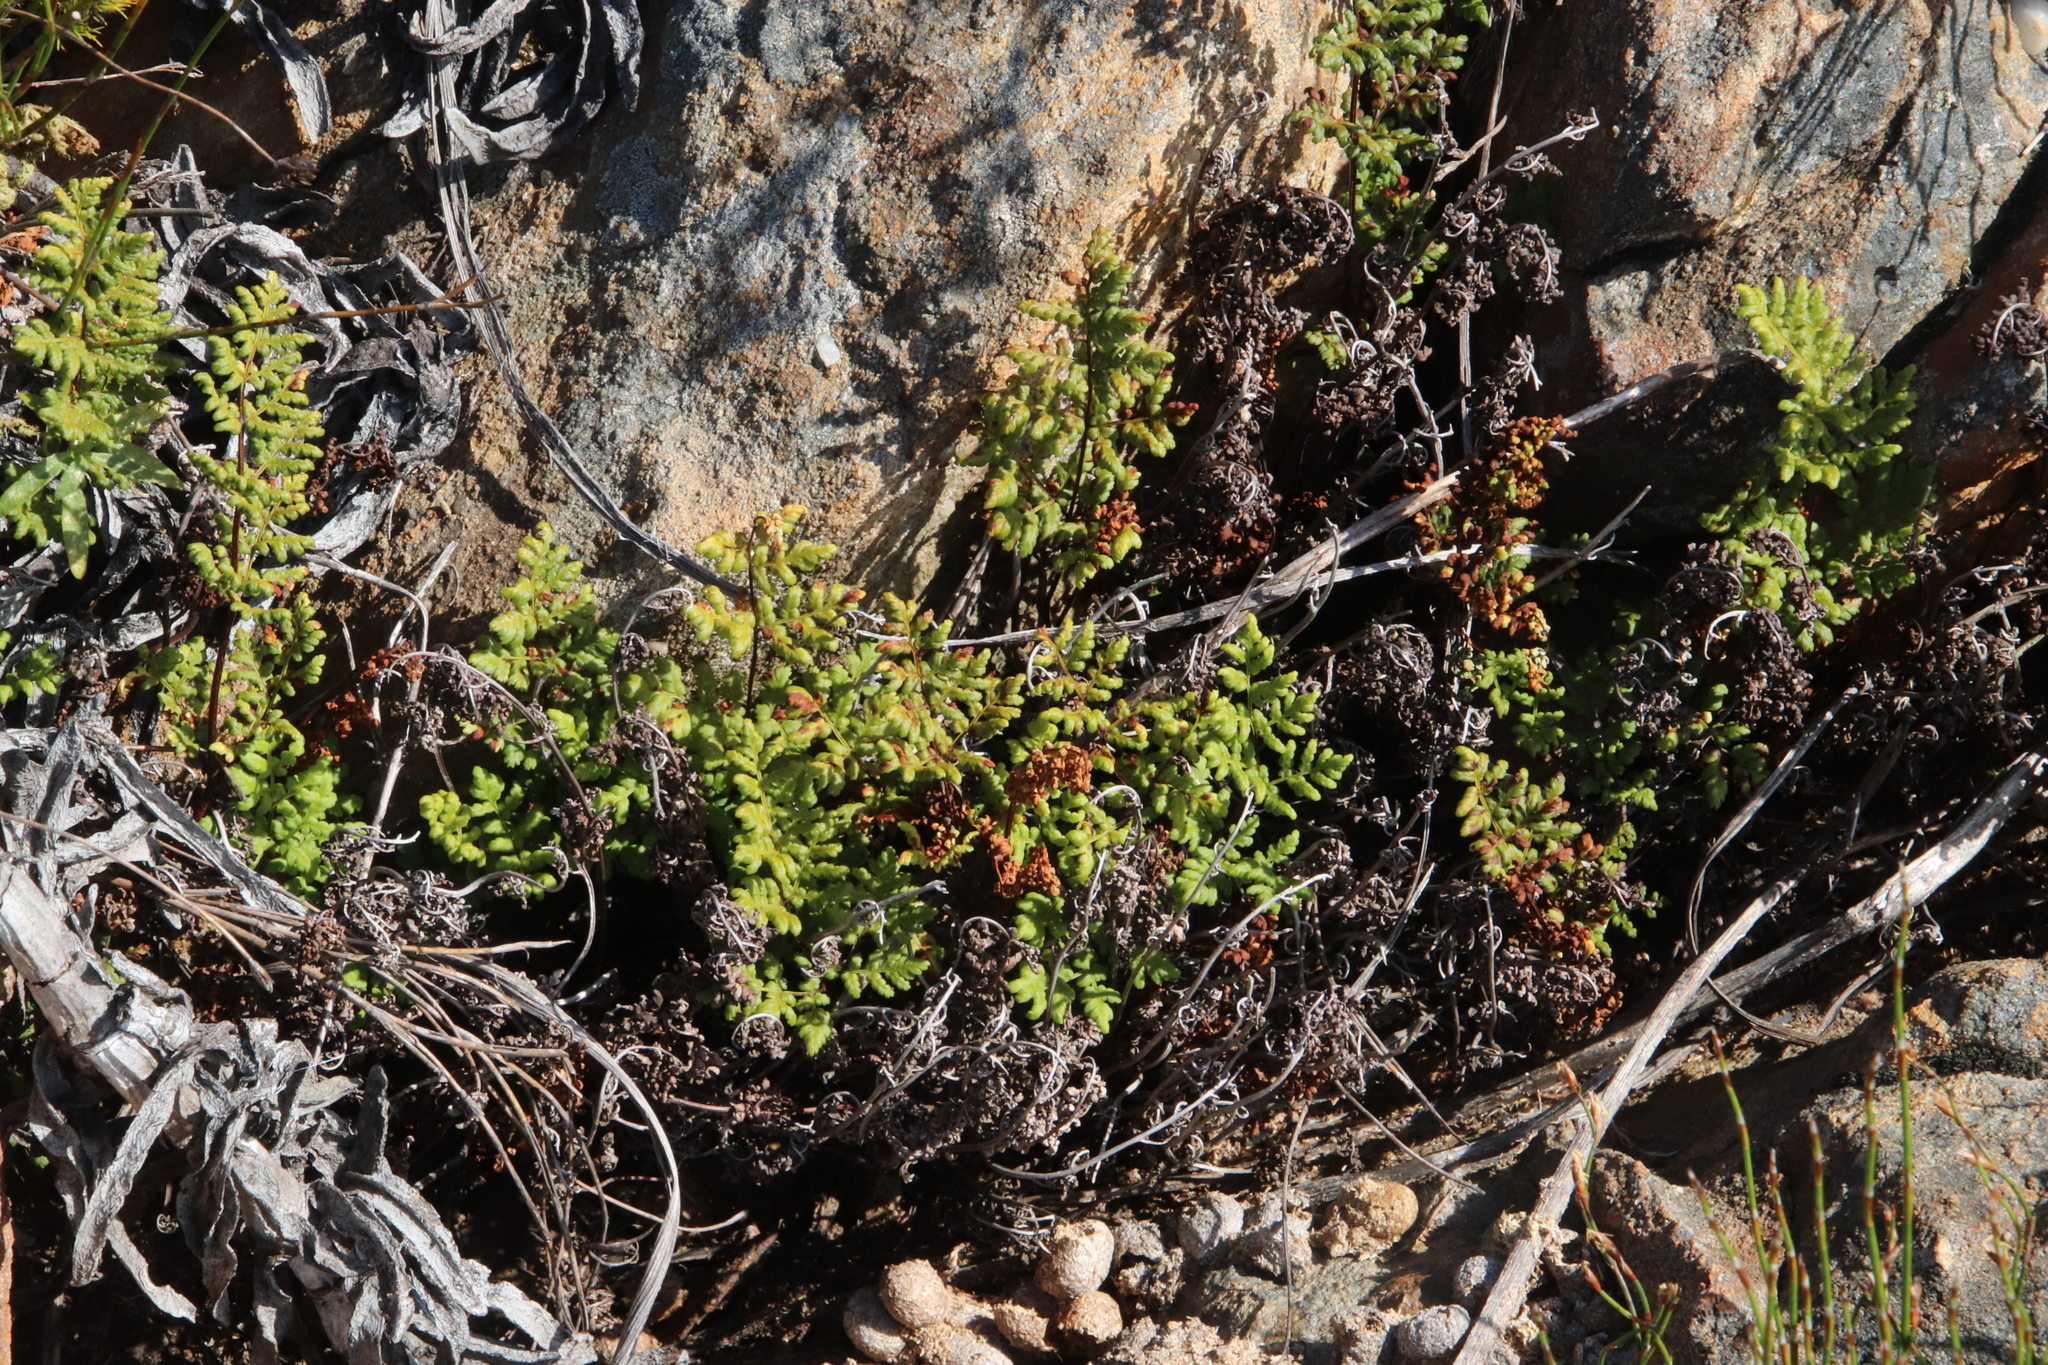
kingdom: Plantae
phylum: Tracheophyta
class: Polypodiopsida
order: Schizaeales
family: Anemiaceae
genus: Anemia
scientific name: Anemia caffrorum
